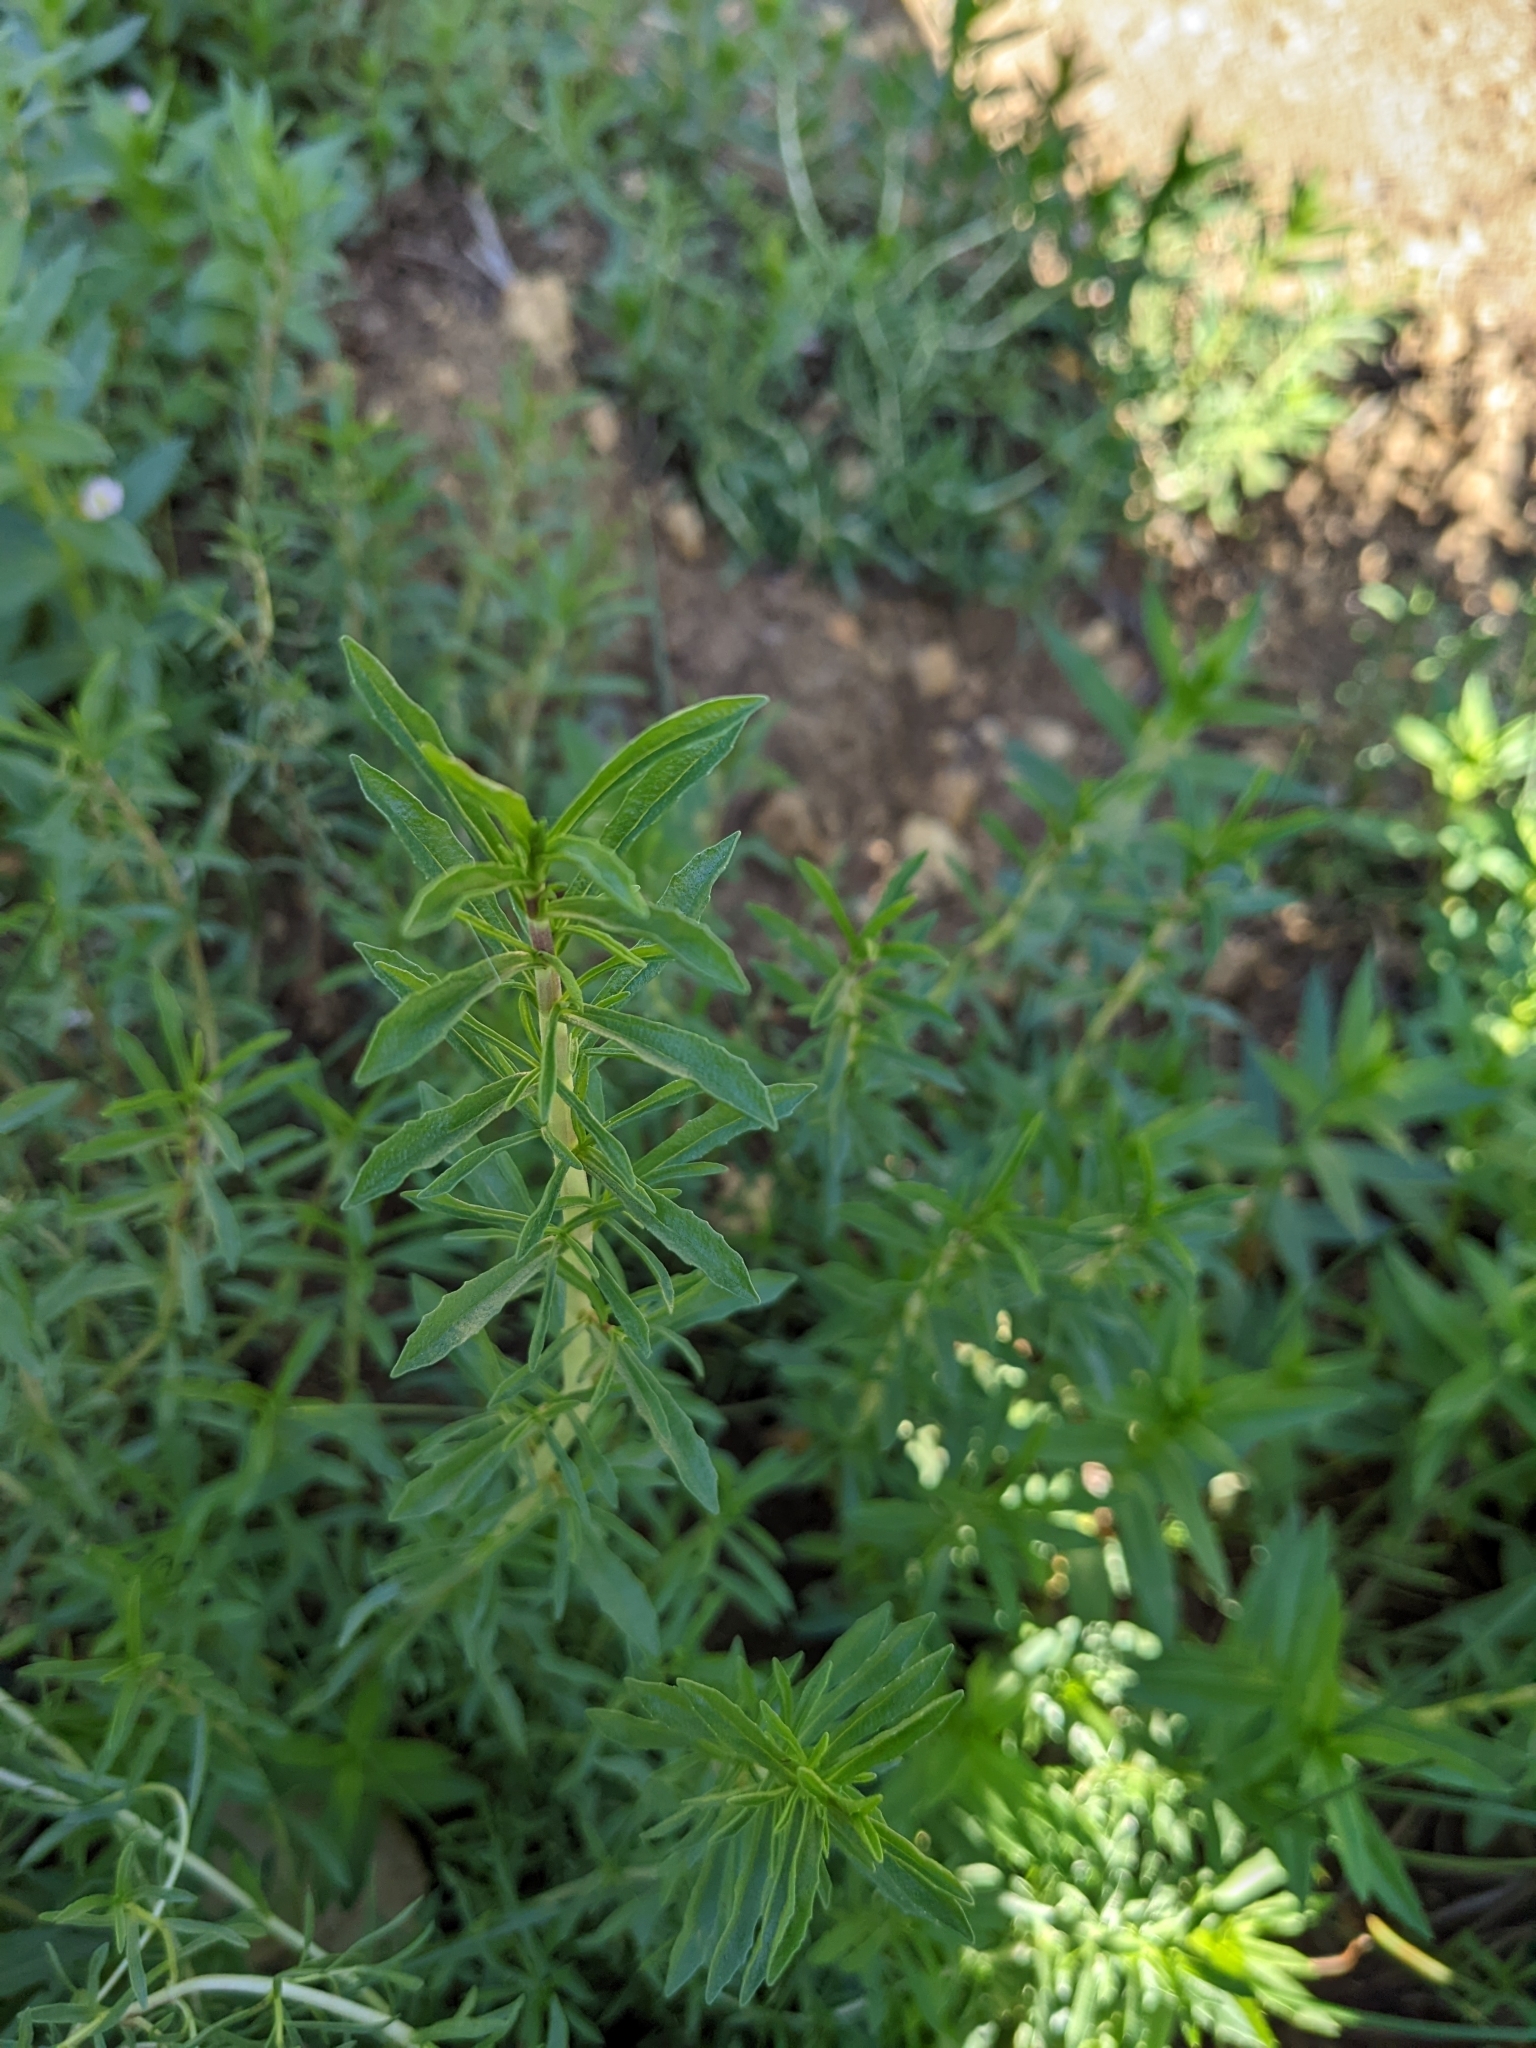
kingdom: Plantae
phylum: Tracheophyta
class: Magnoliopsida
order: Lamiales
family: Lamiaceae
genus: Mentha
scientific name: Mentha cervina
